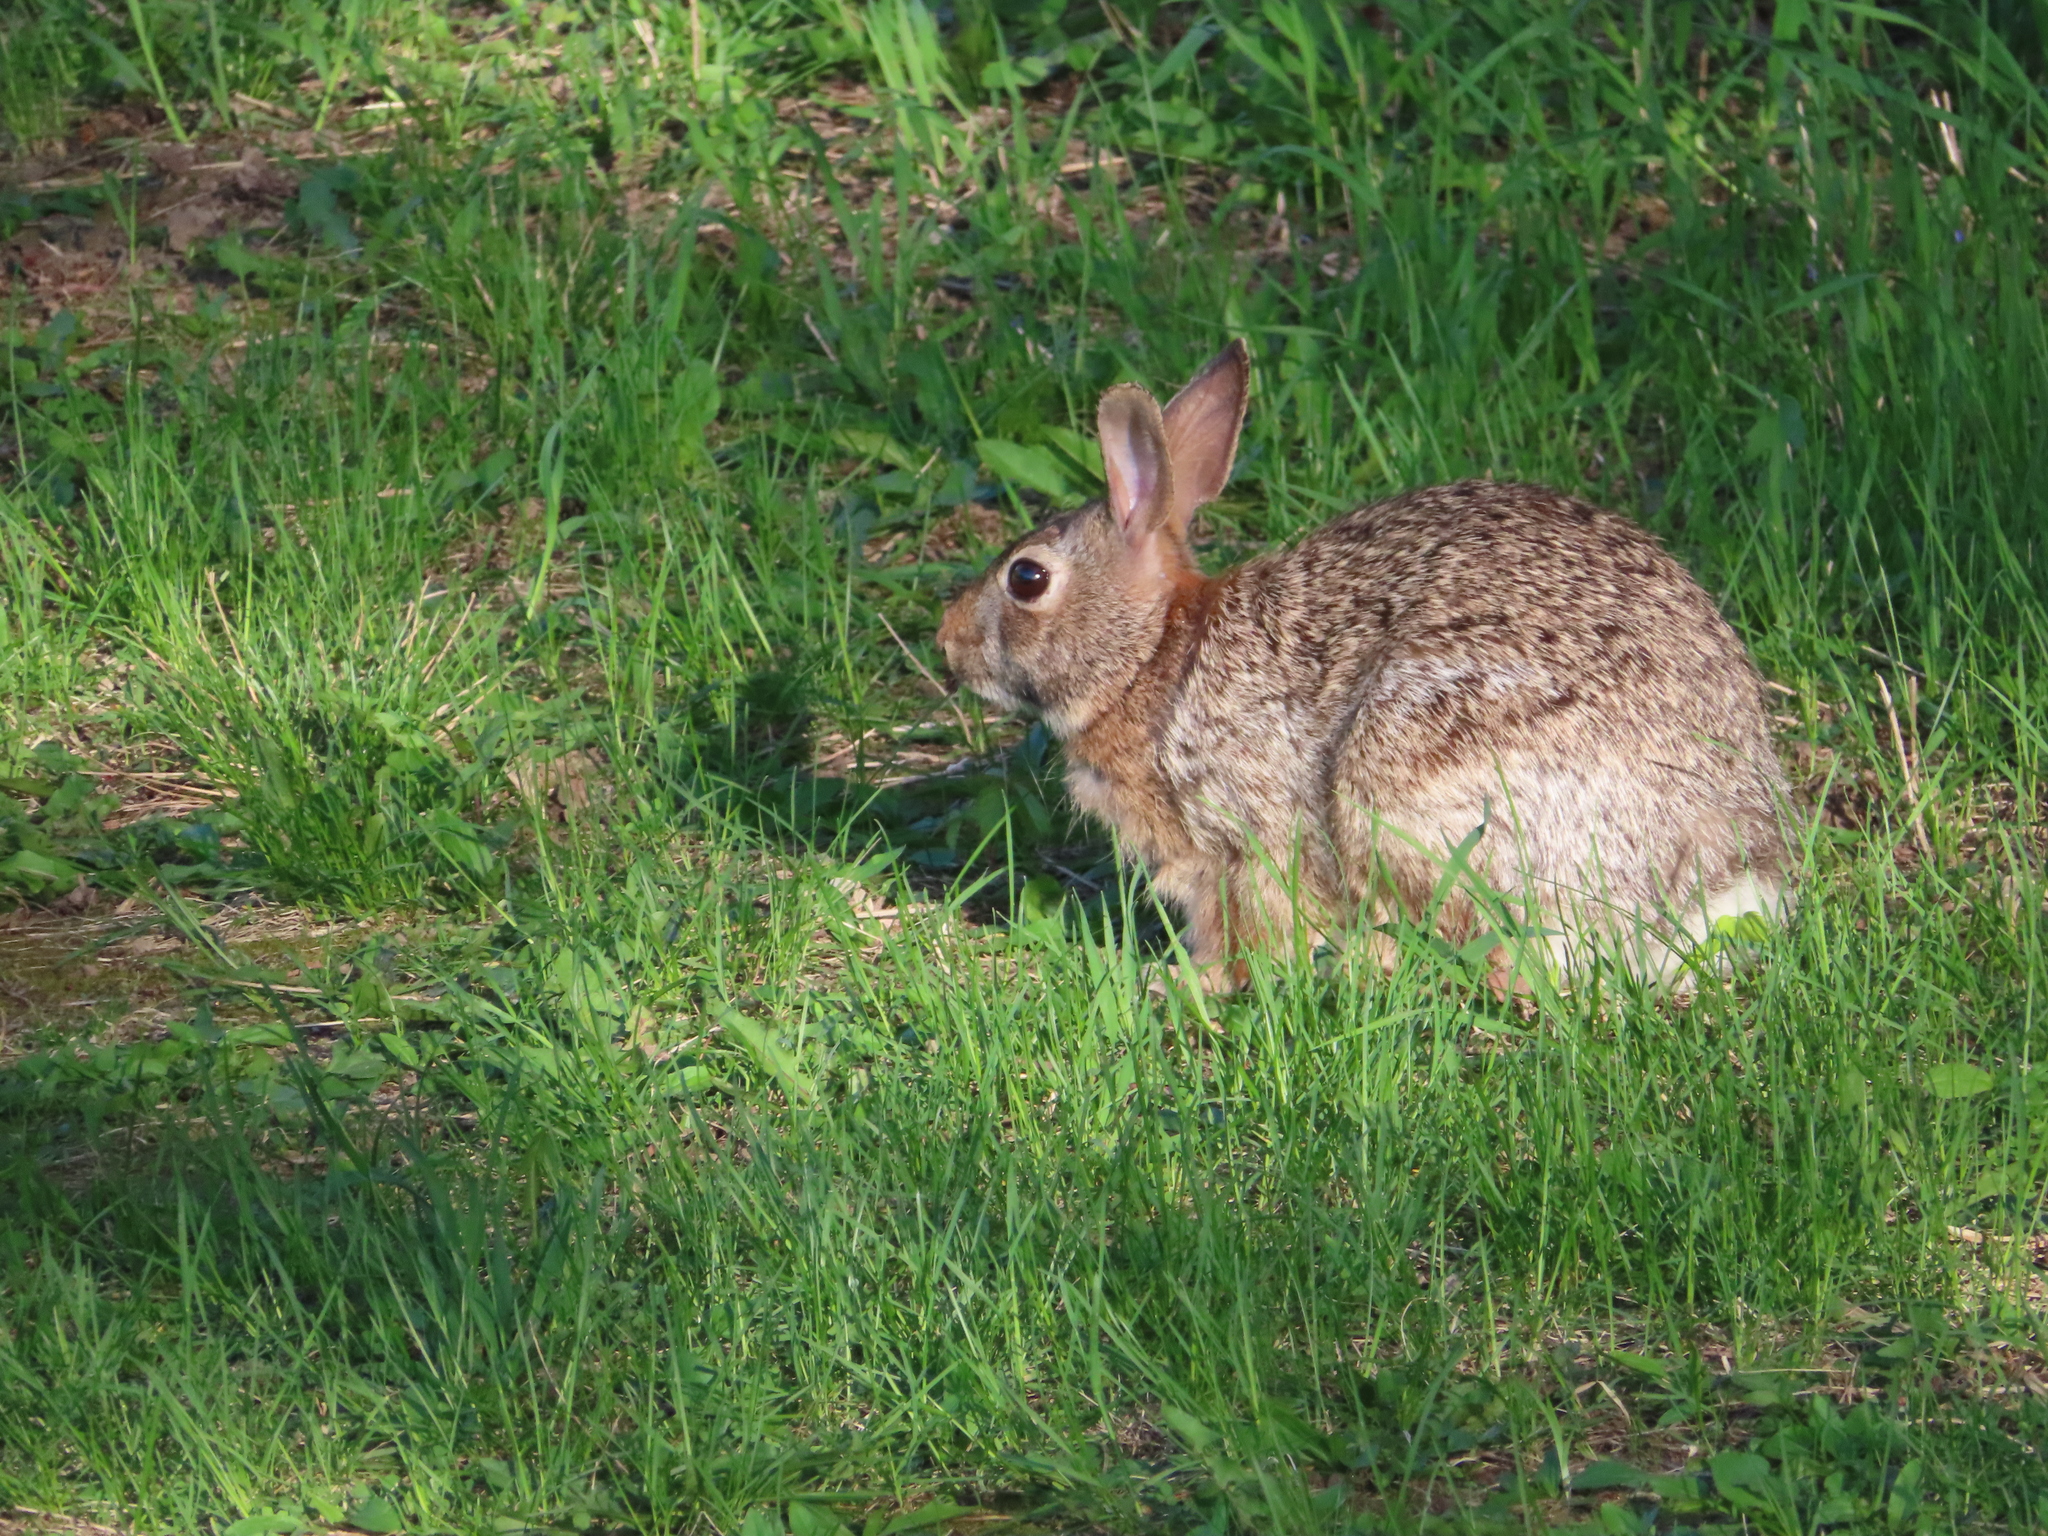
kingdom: Animalia
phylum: Chordata
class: Mammalia
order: Lagomorpha
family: Leporidae
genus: Sylvilagus
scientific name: Sylvilagus floridanus
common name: Eastern cottontail
